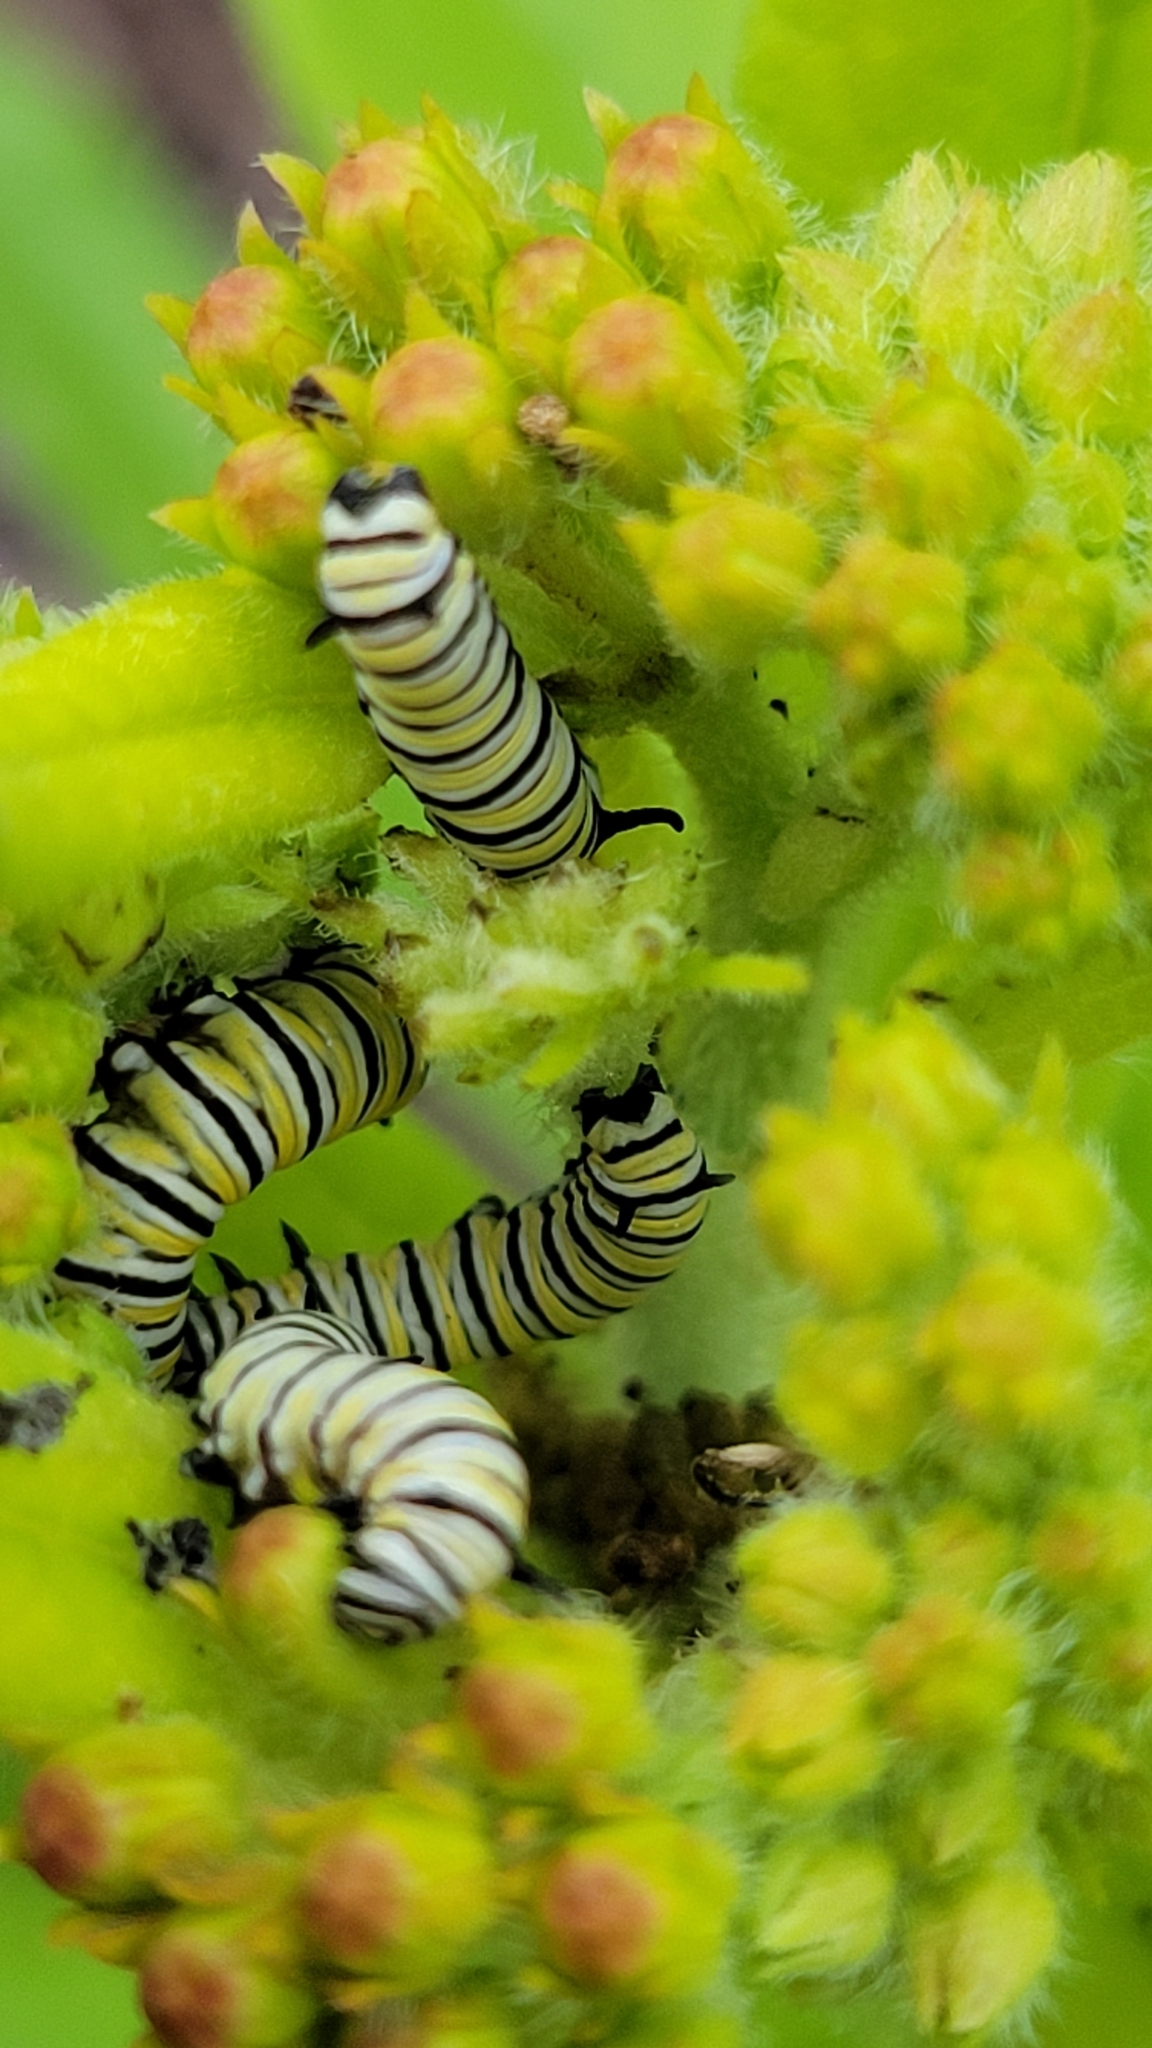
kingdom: Animalia
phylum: Arthropoda
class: Insecta
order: Lepidoptera
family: Nymphalidae
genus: Danaus
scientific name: Danaus plexippus
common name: Monarch
